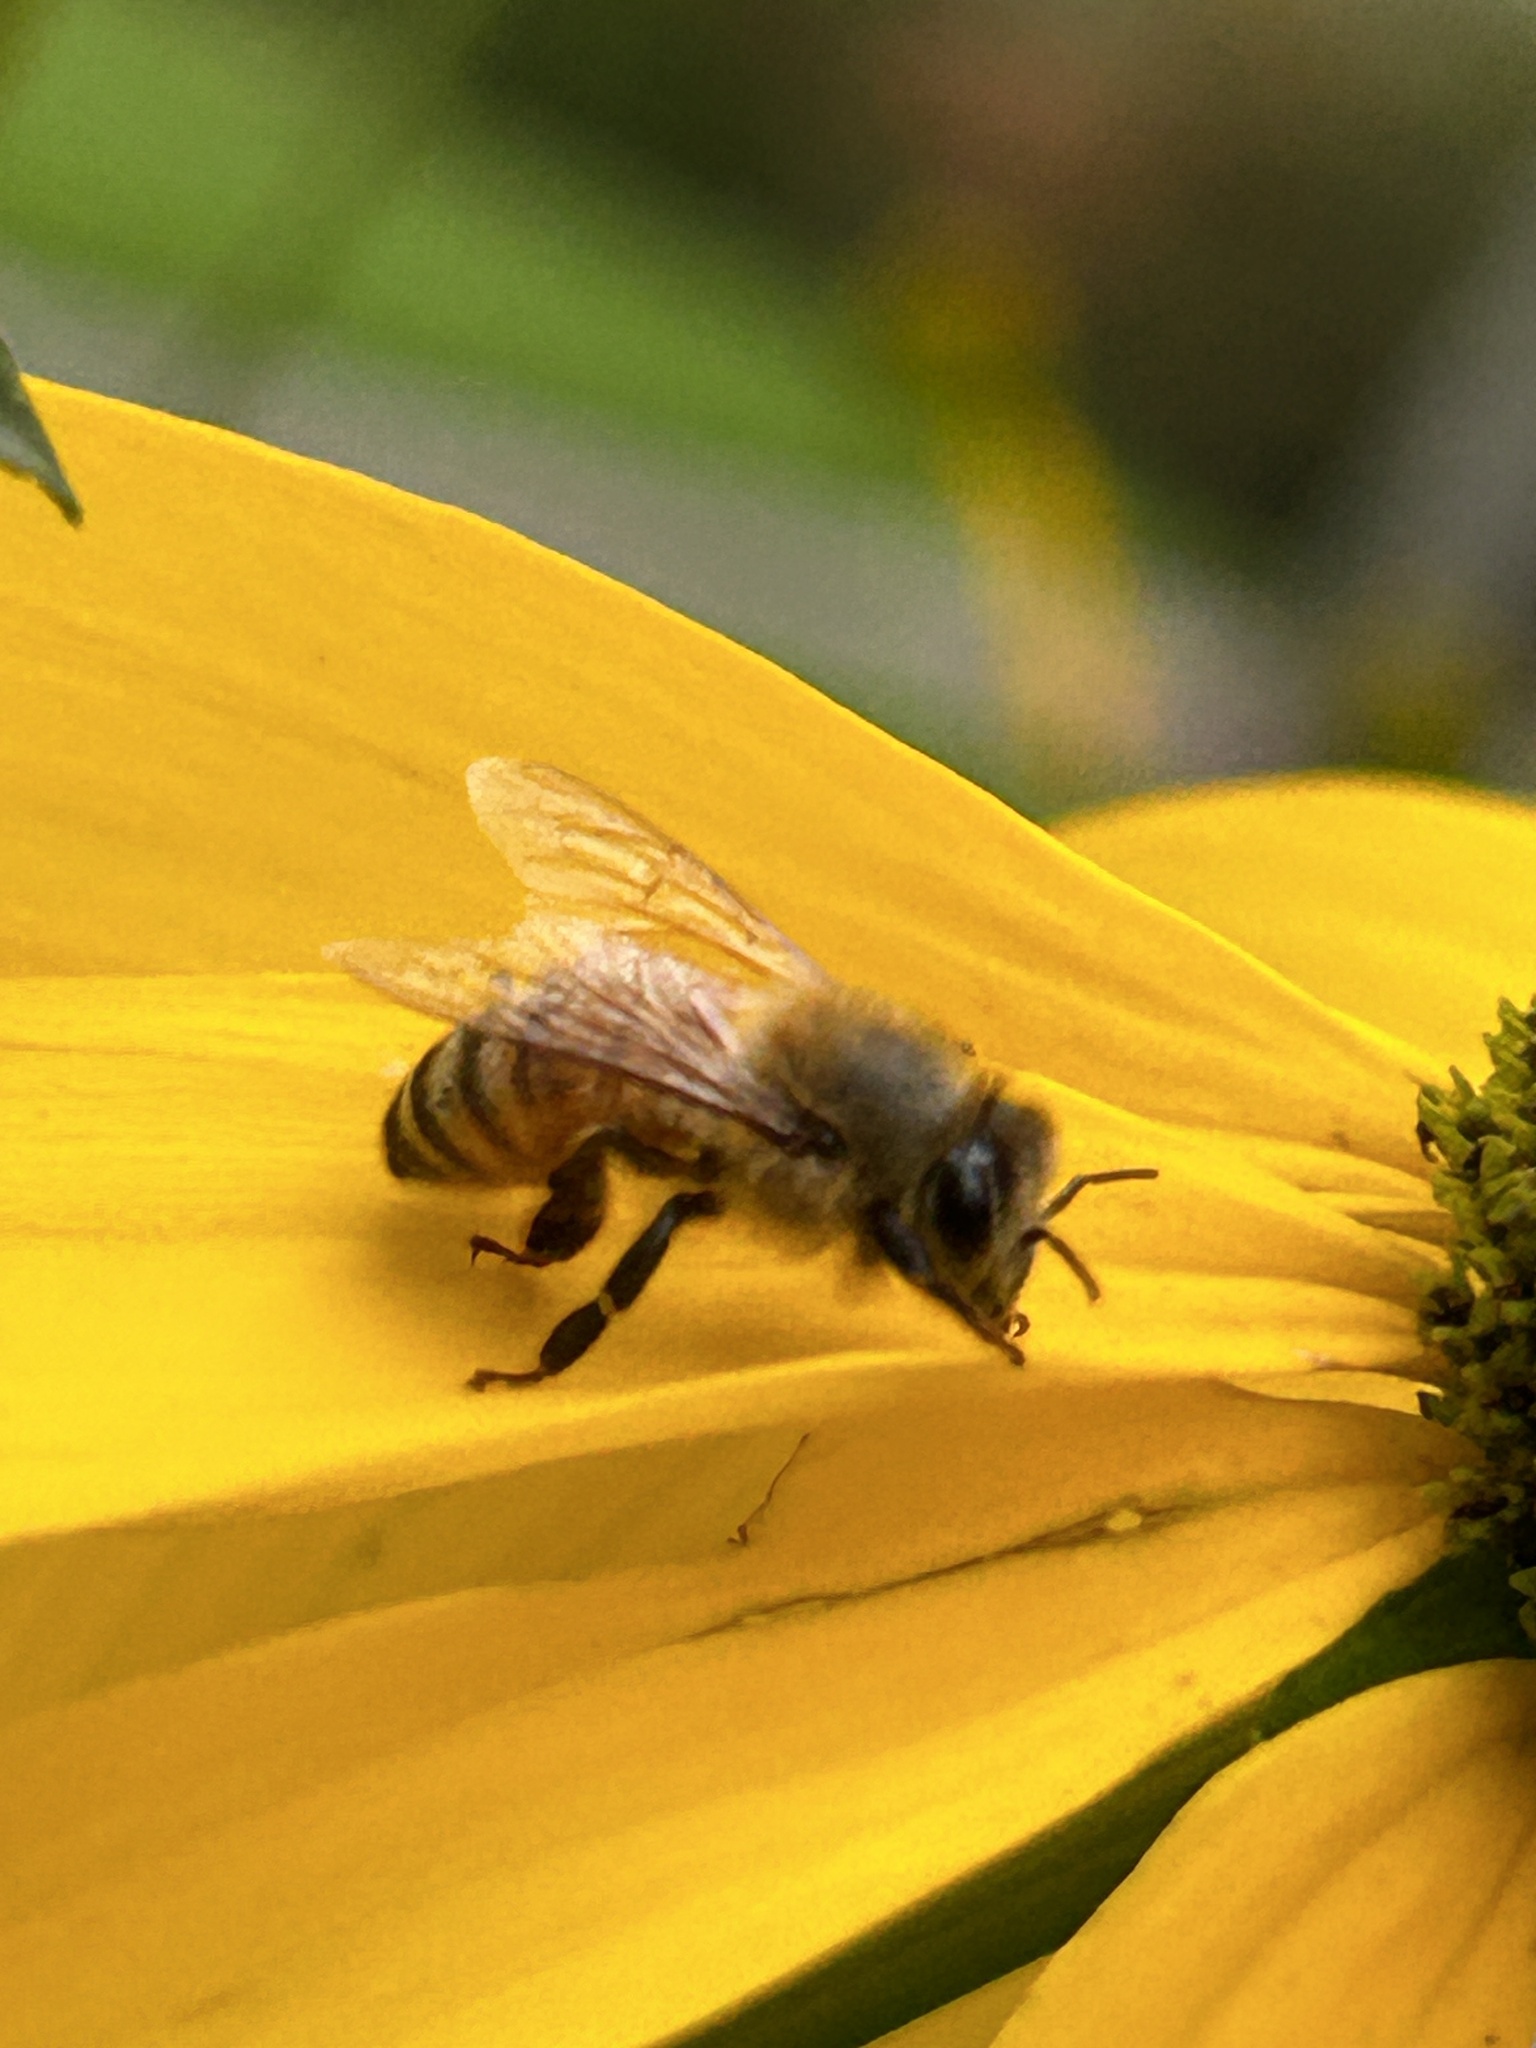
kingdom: Animalia
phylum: Arthropoda
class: Insecta
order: Hymenoptera
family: Apidae
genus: Apis
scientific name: Apis mellifera
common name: Honey bee
